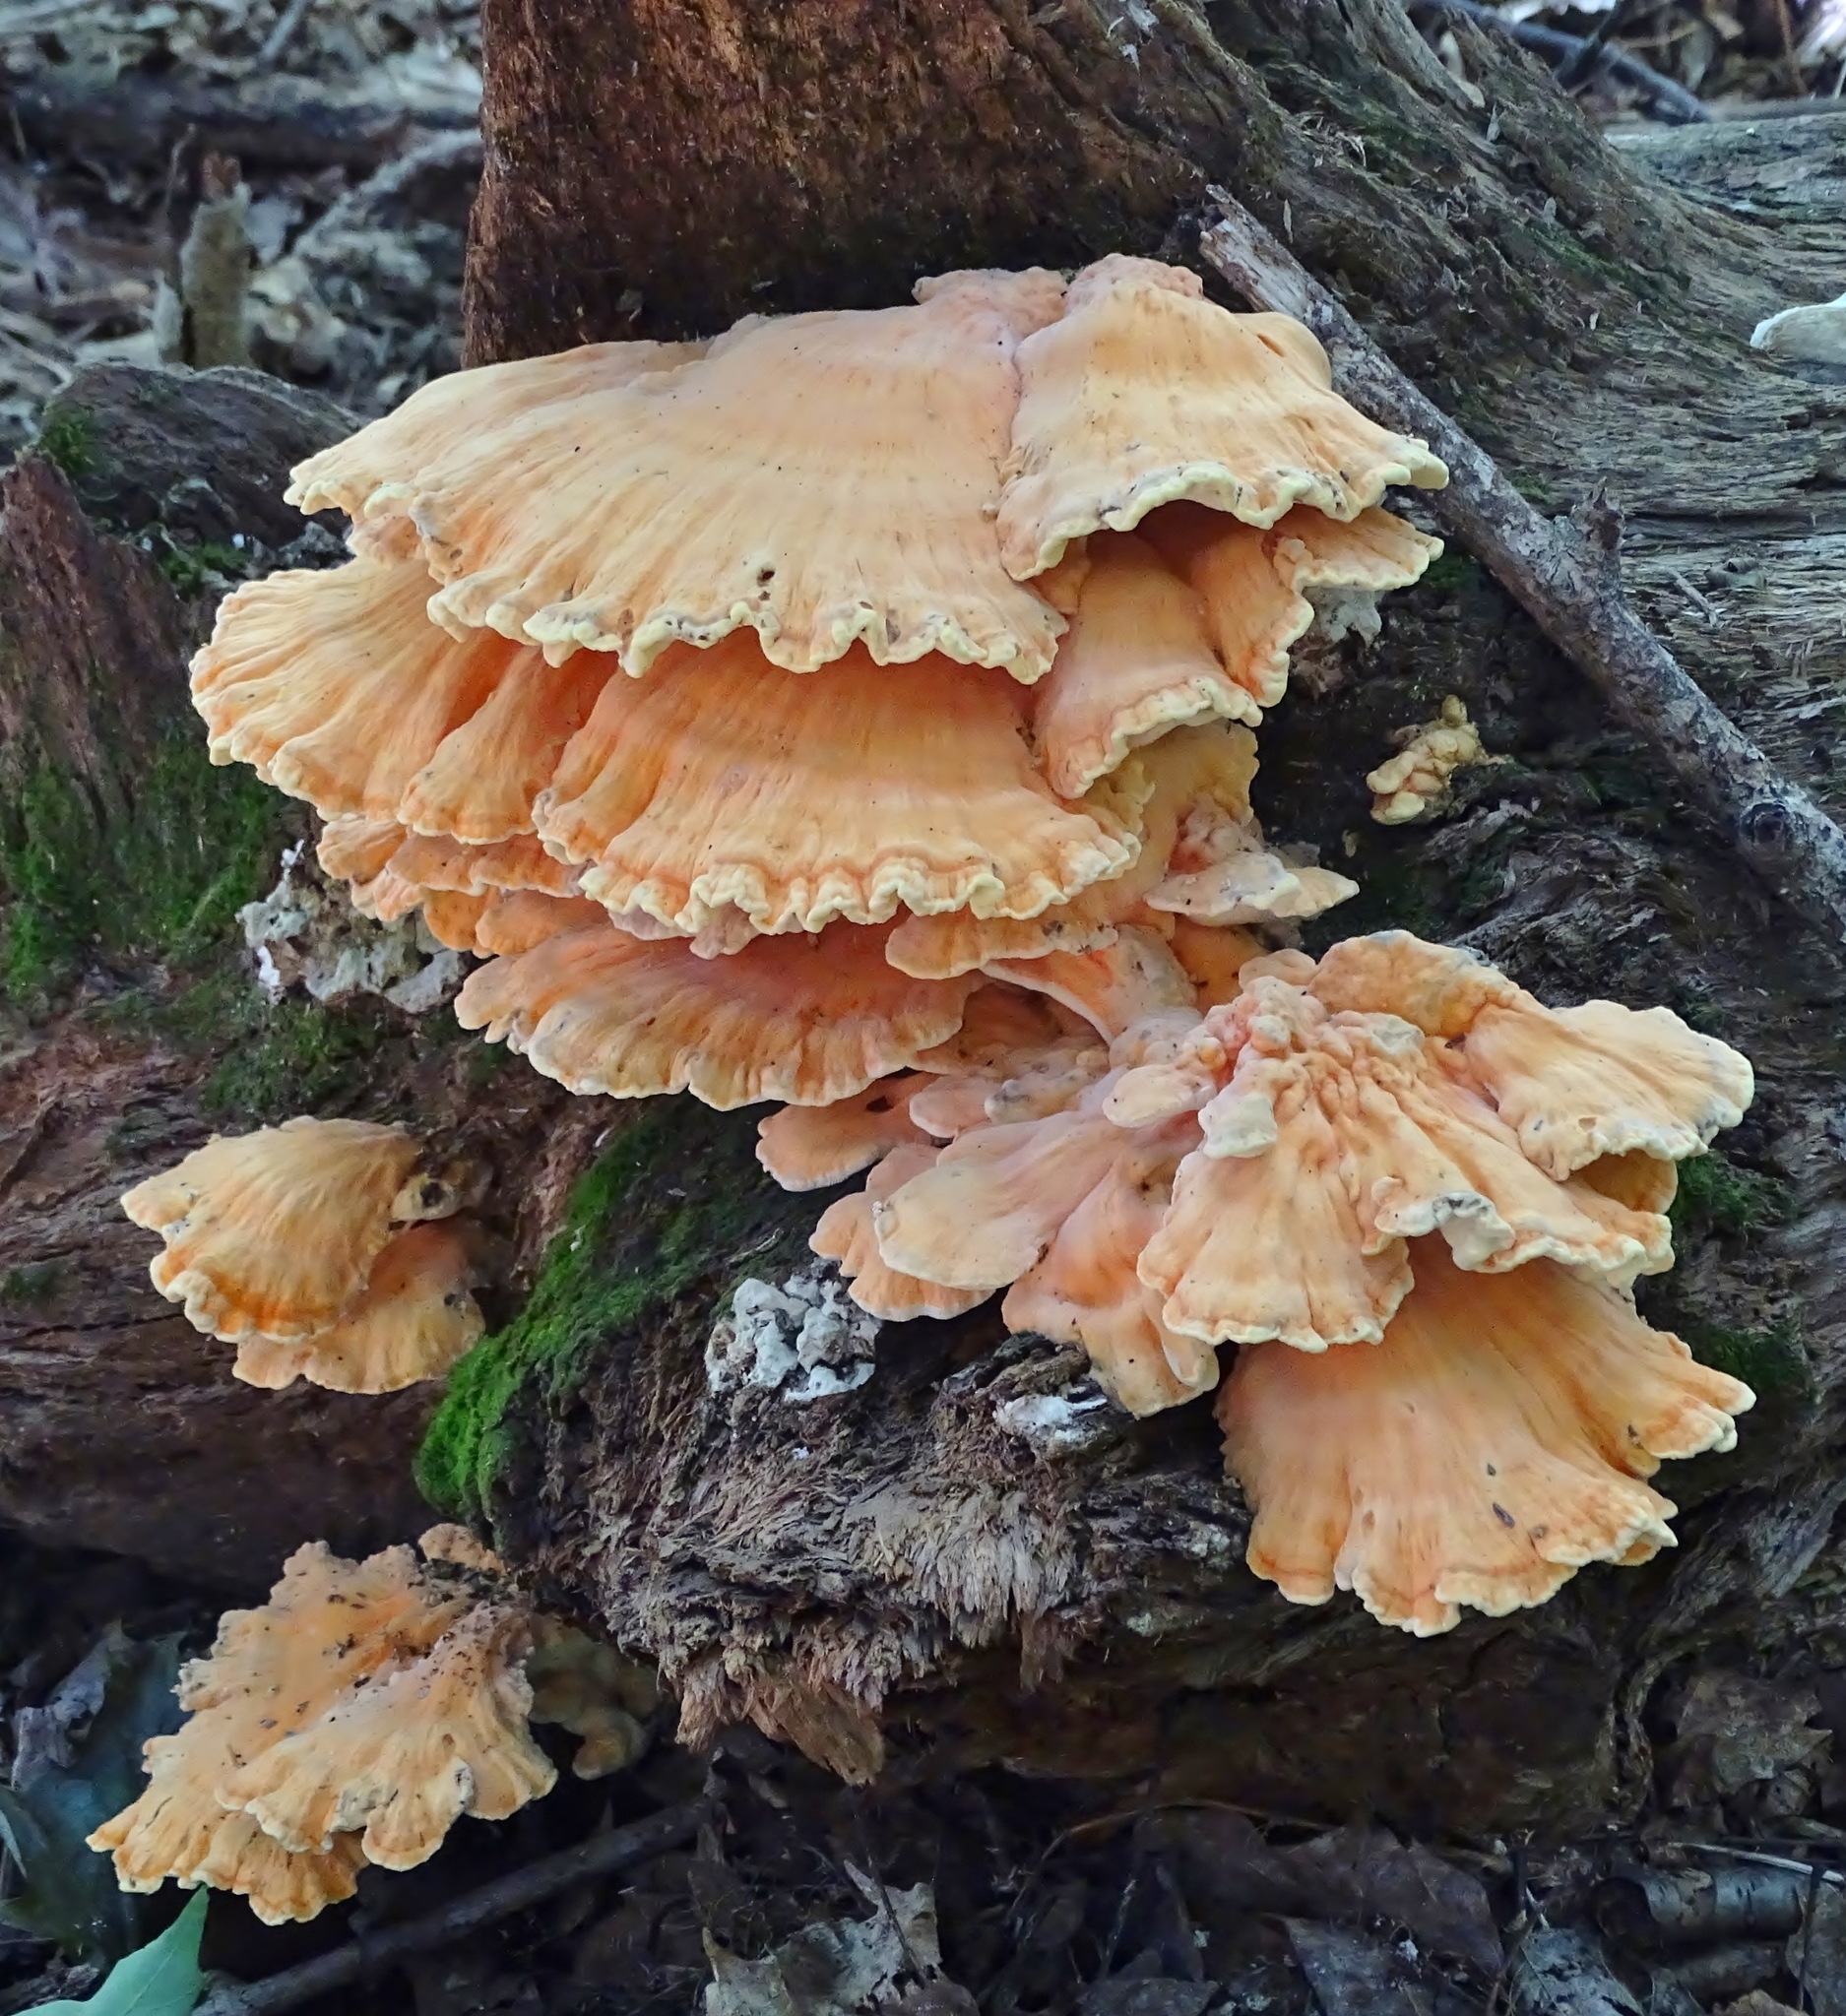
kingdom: Fungi
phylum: Basidiomycota
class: Agaricomycetes
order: Polyporales
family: Laetiporaceae
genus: Laetiporus
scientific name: Laetiporus sulphureus
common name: Chicken of the woods
